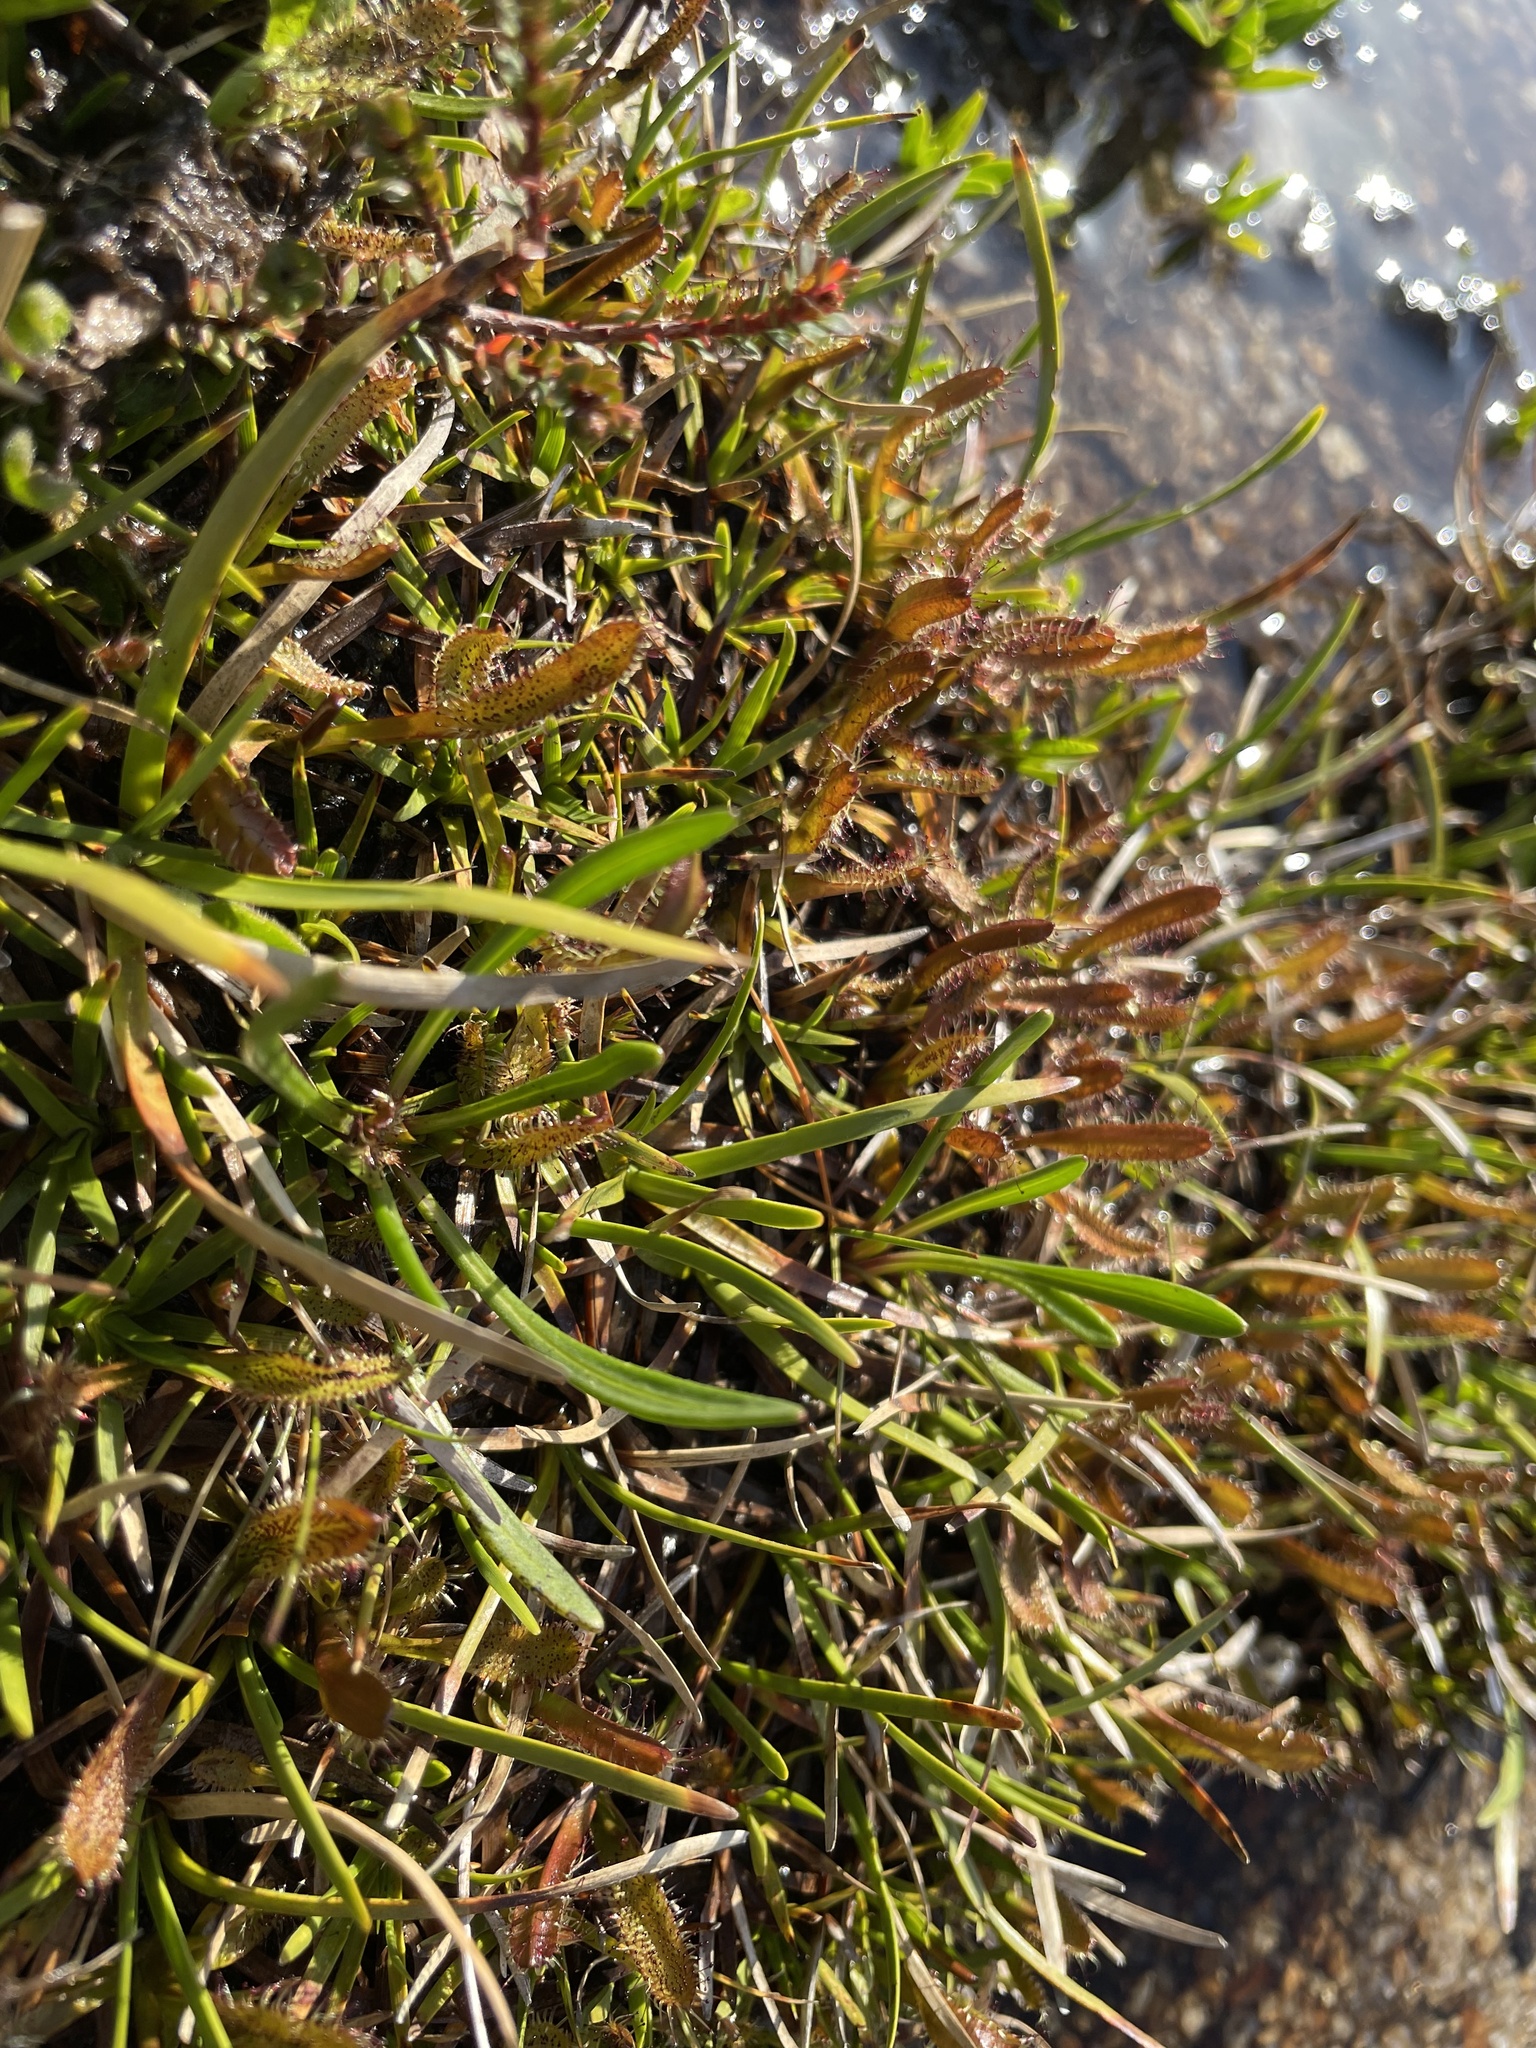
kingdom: Plantae
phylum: Tracheophyta
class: Magnoliopsida
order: Caryophyllales
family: Droseraceae
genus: Drosera
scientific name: Drosera arcturi
